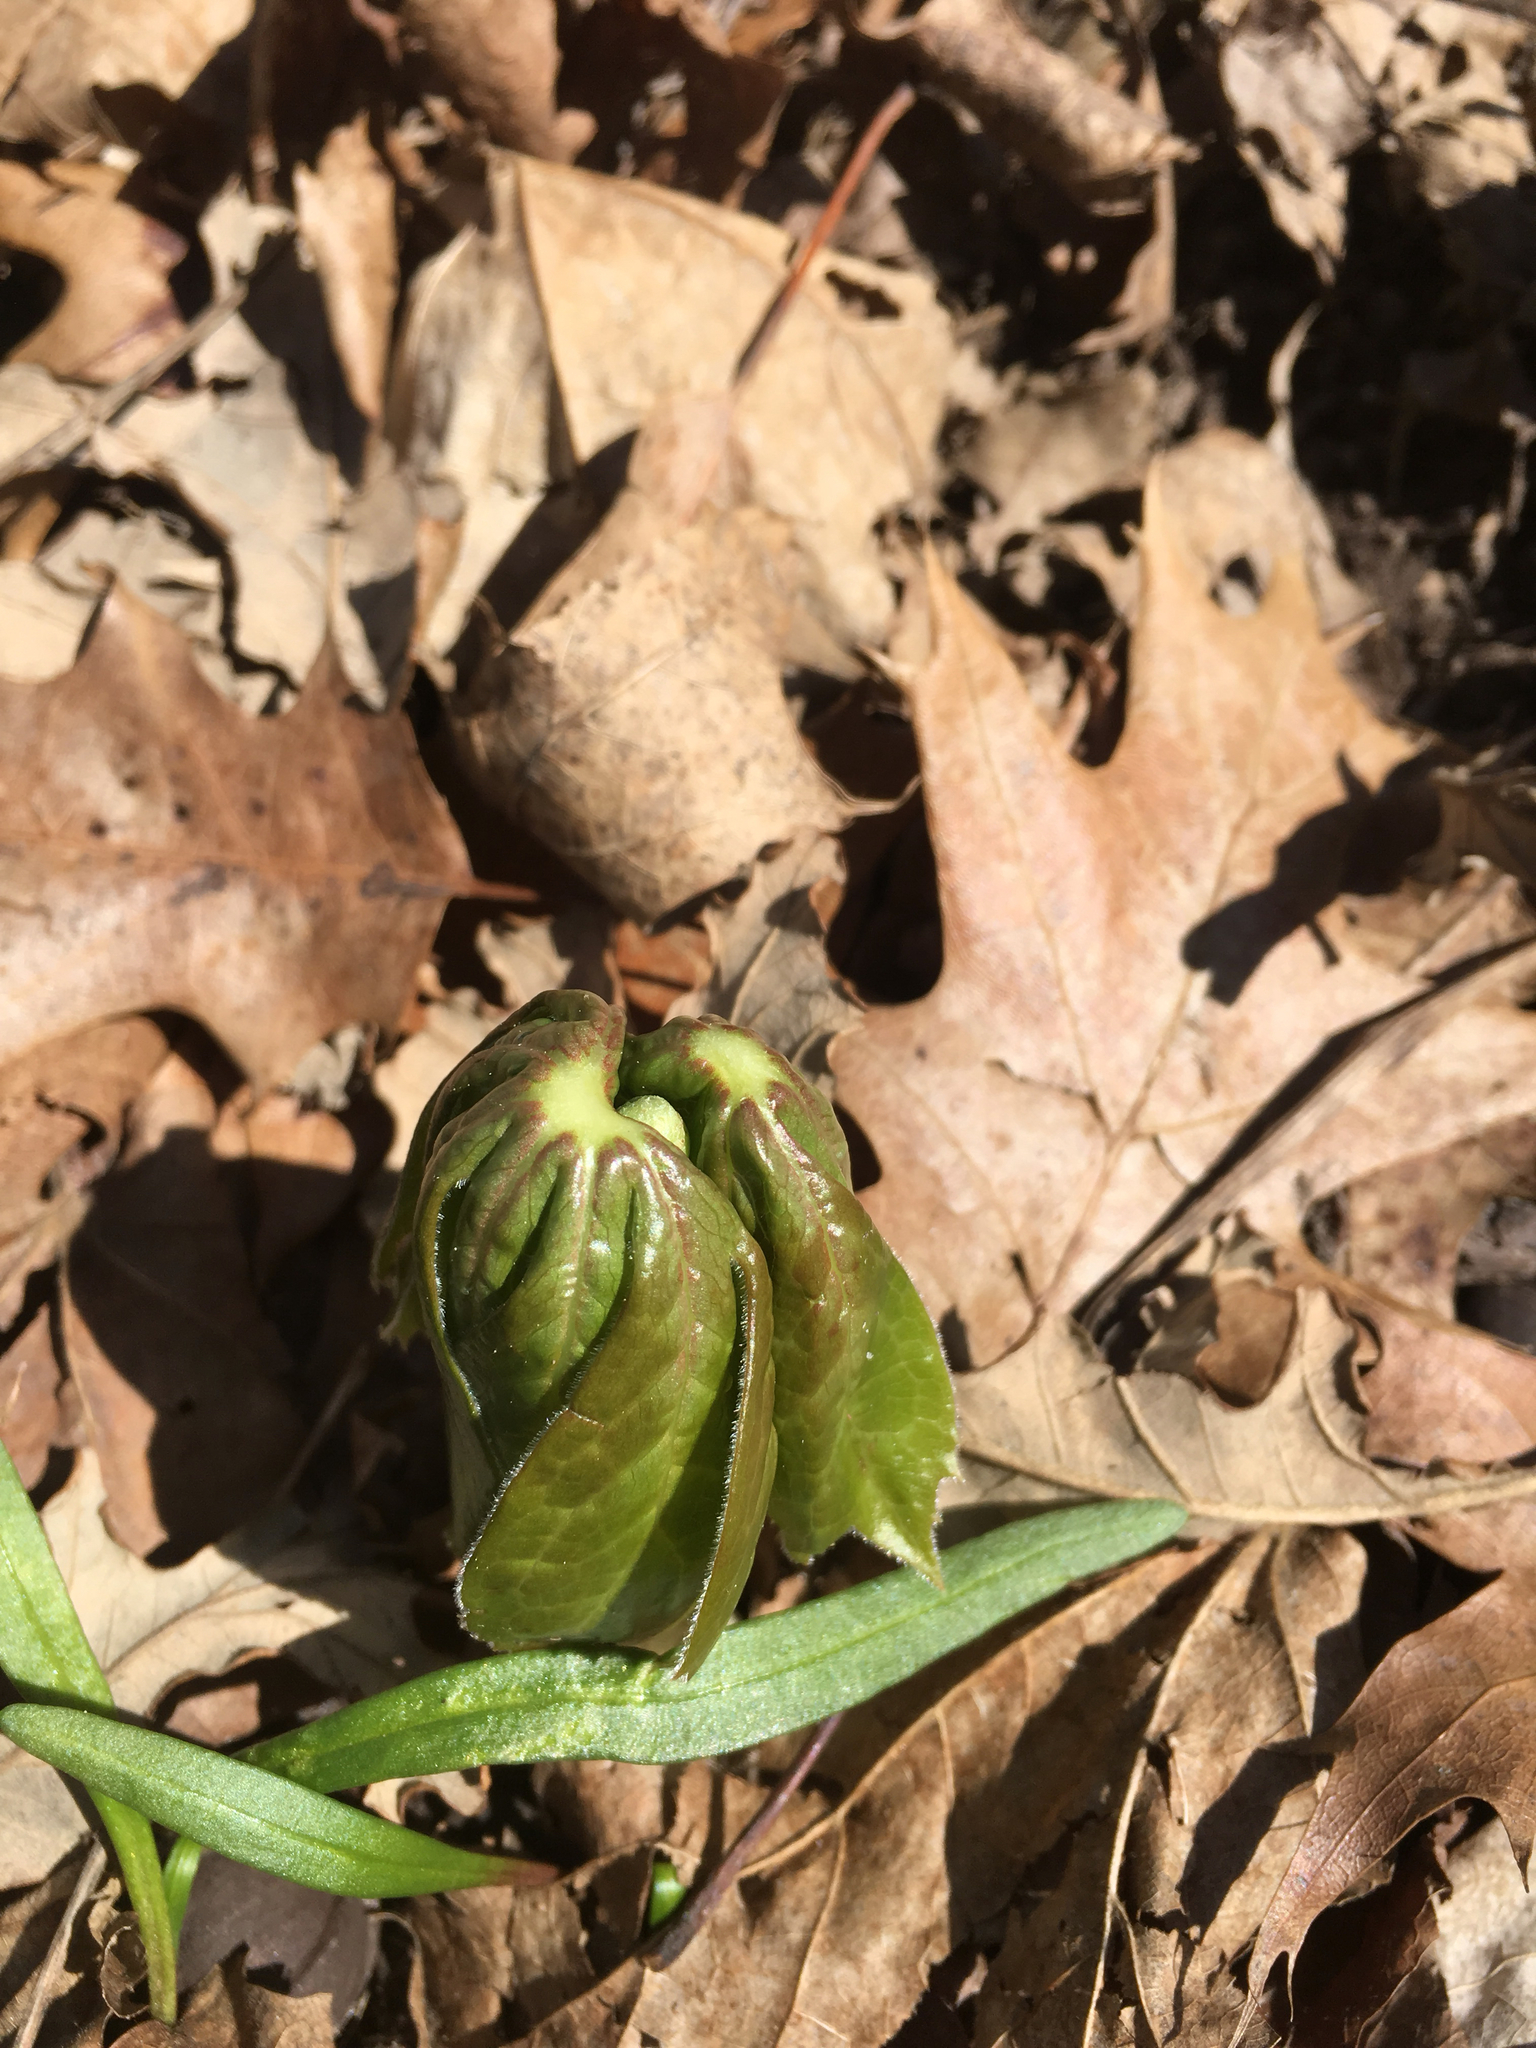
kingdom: Plantae
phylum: Tracheophyta
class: Magnoliopsida
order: Ranunculales
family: Berberidaceae
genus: Podophyllum
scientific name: Podophyllum peltatum
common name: Wild mandrake
